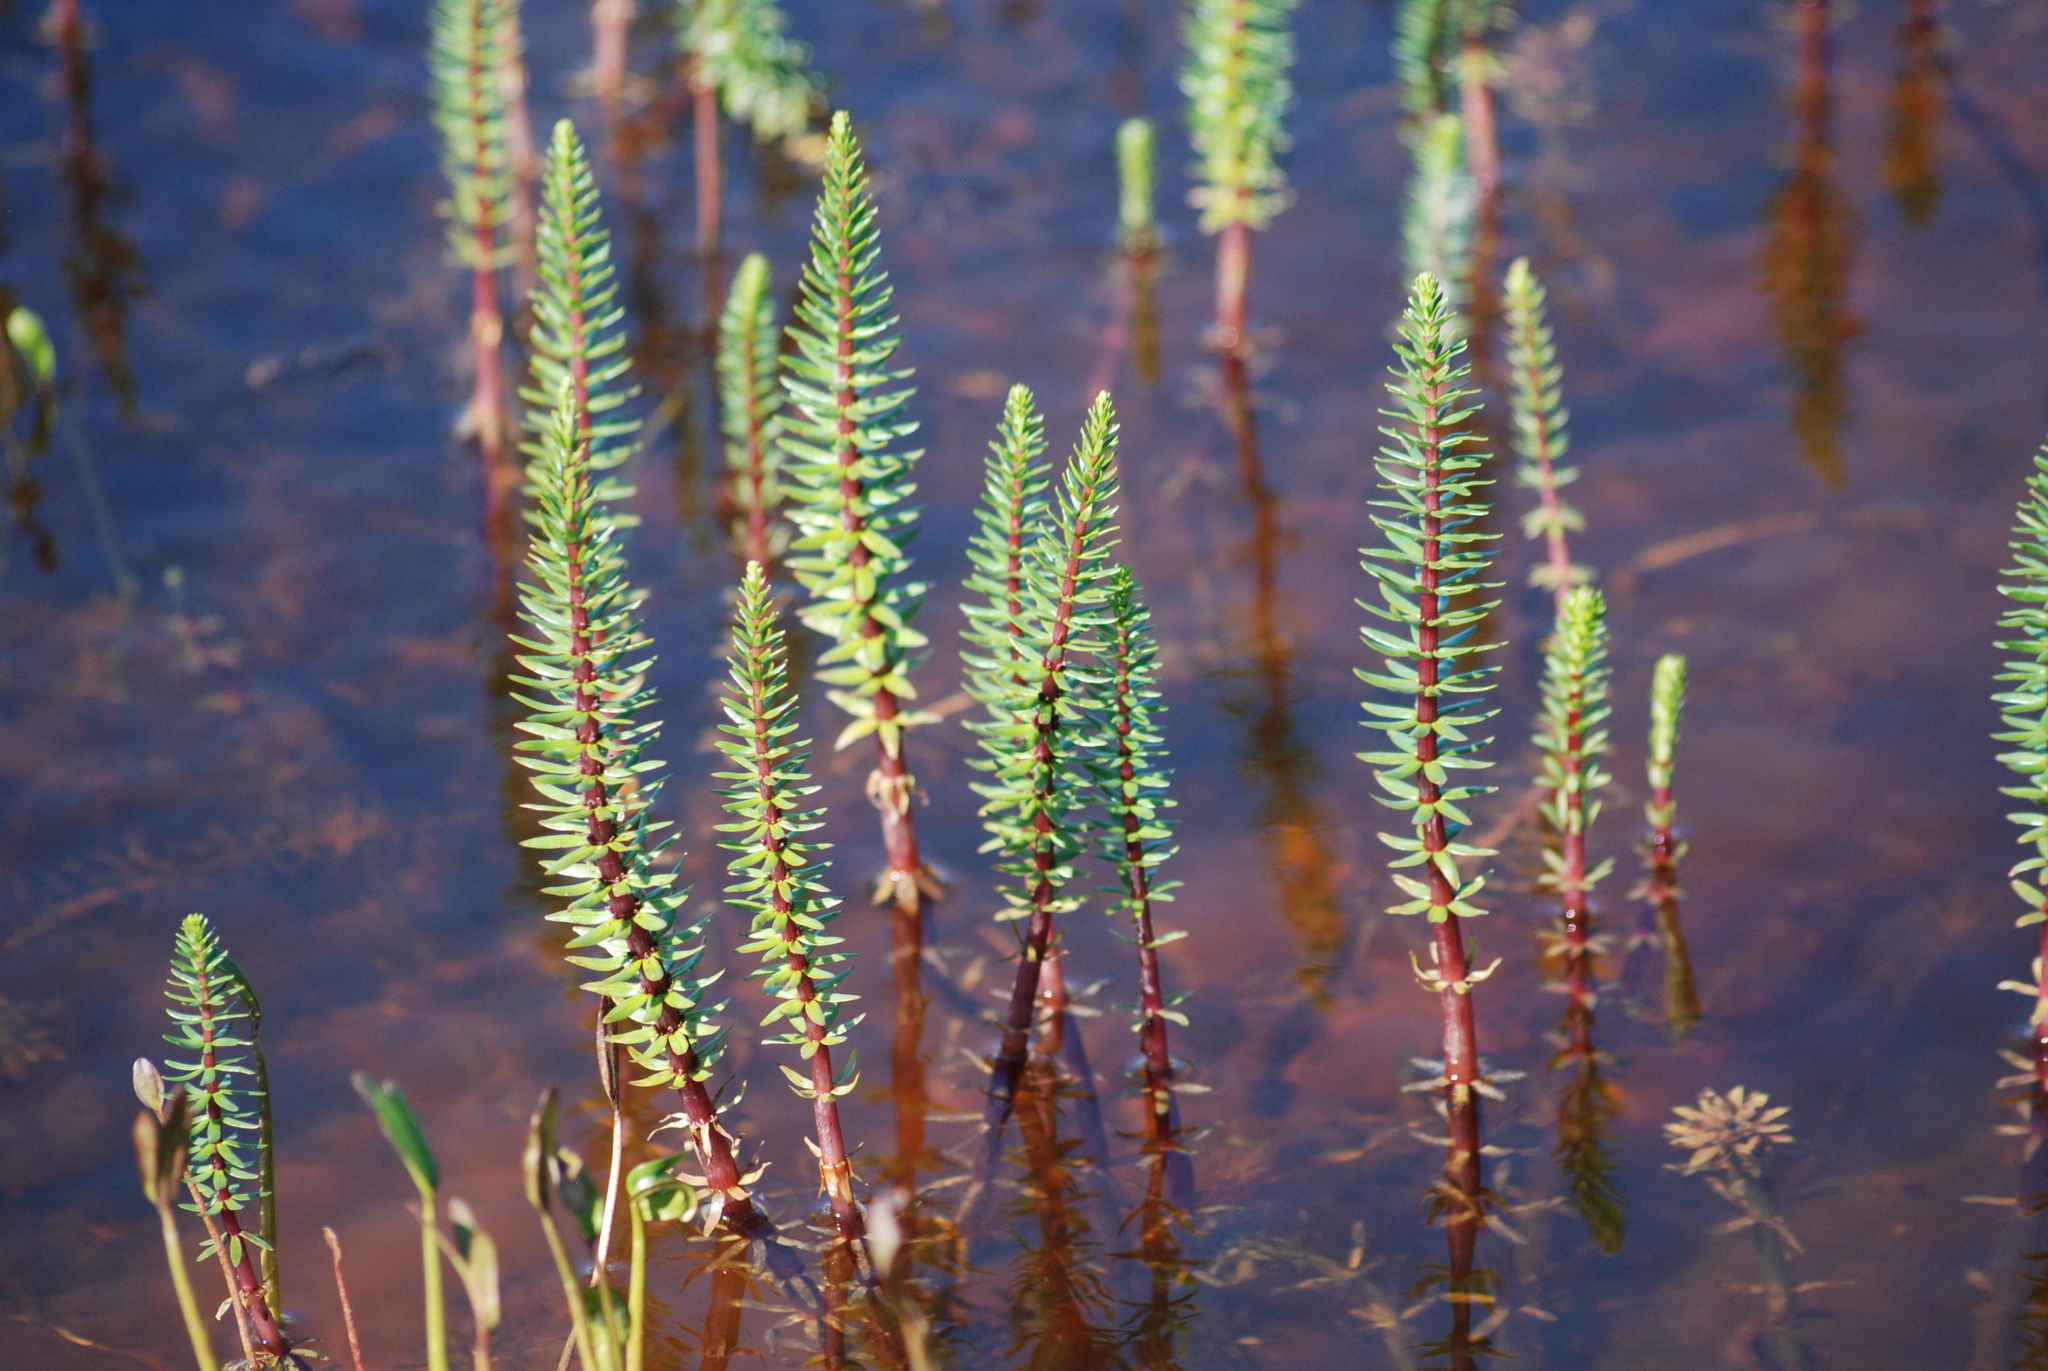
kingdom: Plantae
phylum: Tracheophyta
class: Magnoliopsida
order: Lamiales
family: Plantaginaceae
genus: Hippuris
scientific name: Hippuris vulgaris
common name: Mare's-tail
